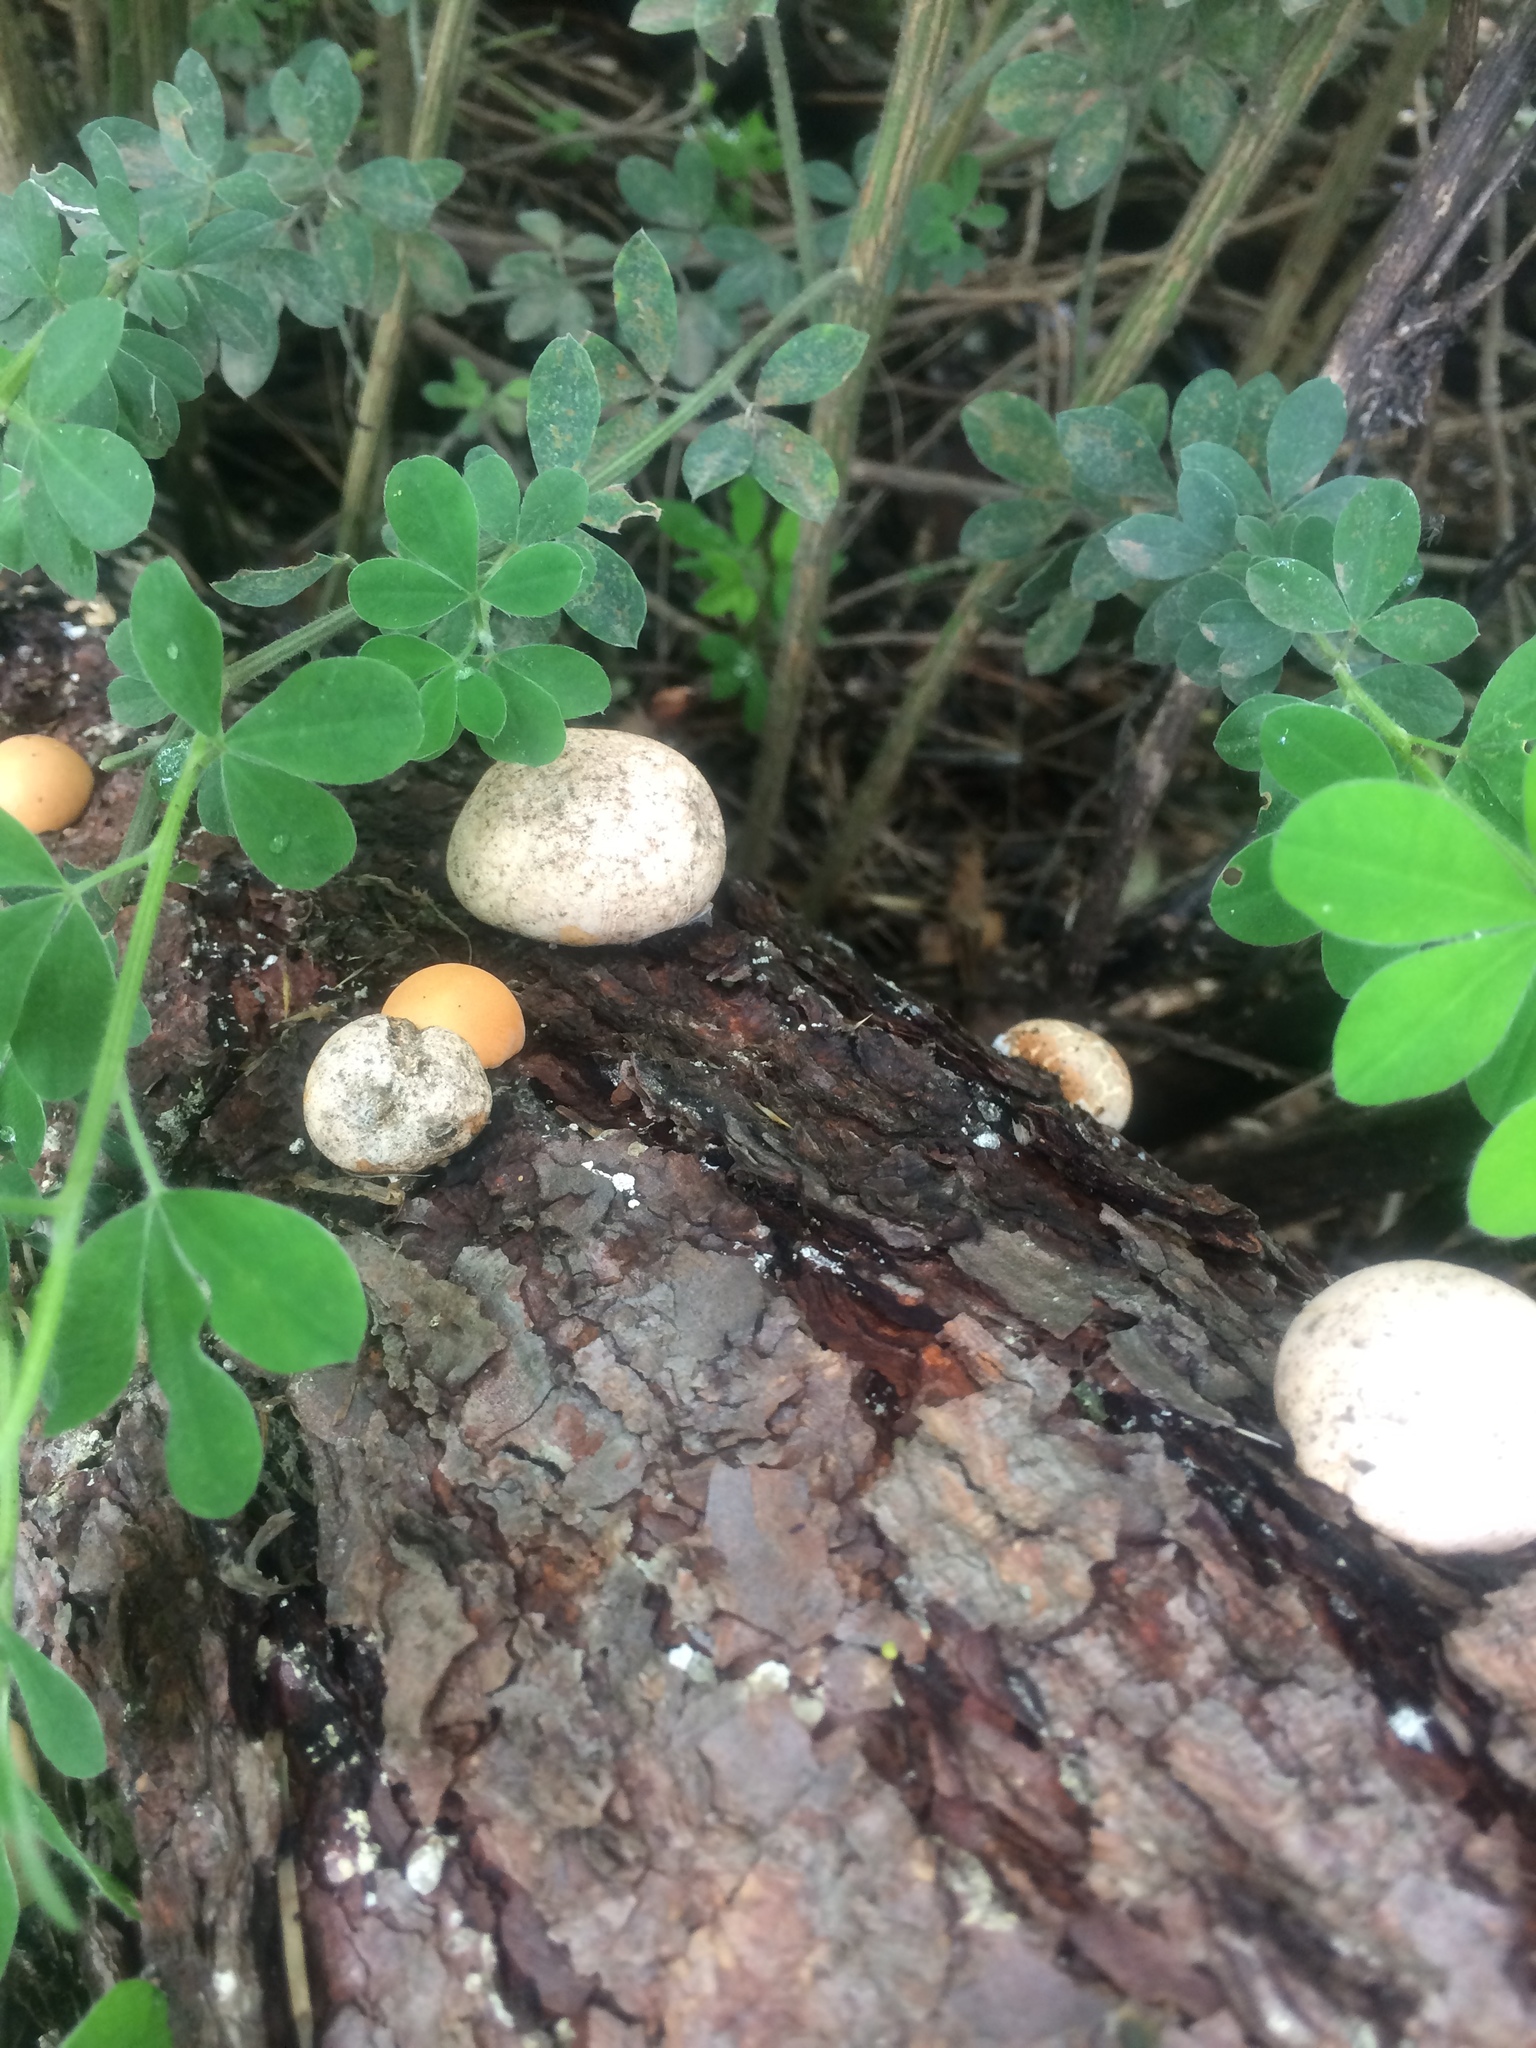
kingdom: Fungi
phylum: Basidiomycota
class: Agaricomycetes
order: Polyporales
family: Polyporaceae
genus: Cryptoporus
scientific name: Cryptoporus volvatus
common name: Veiled polypore
